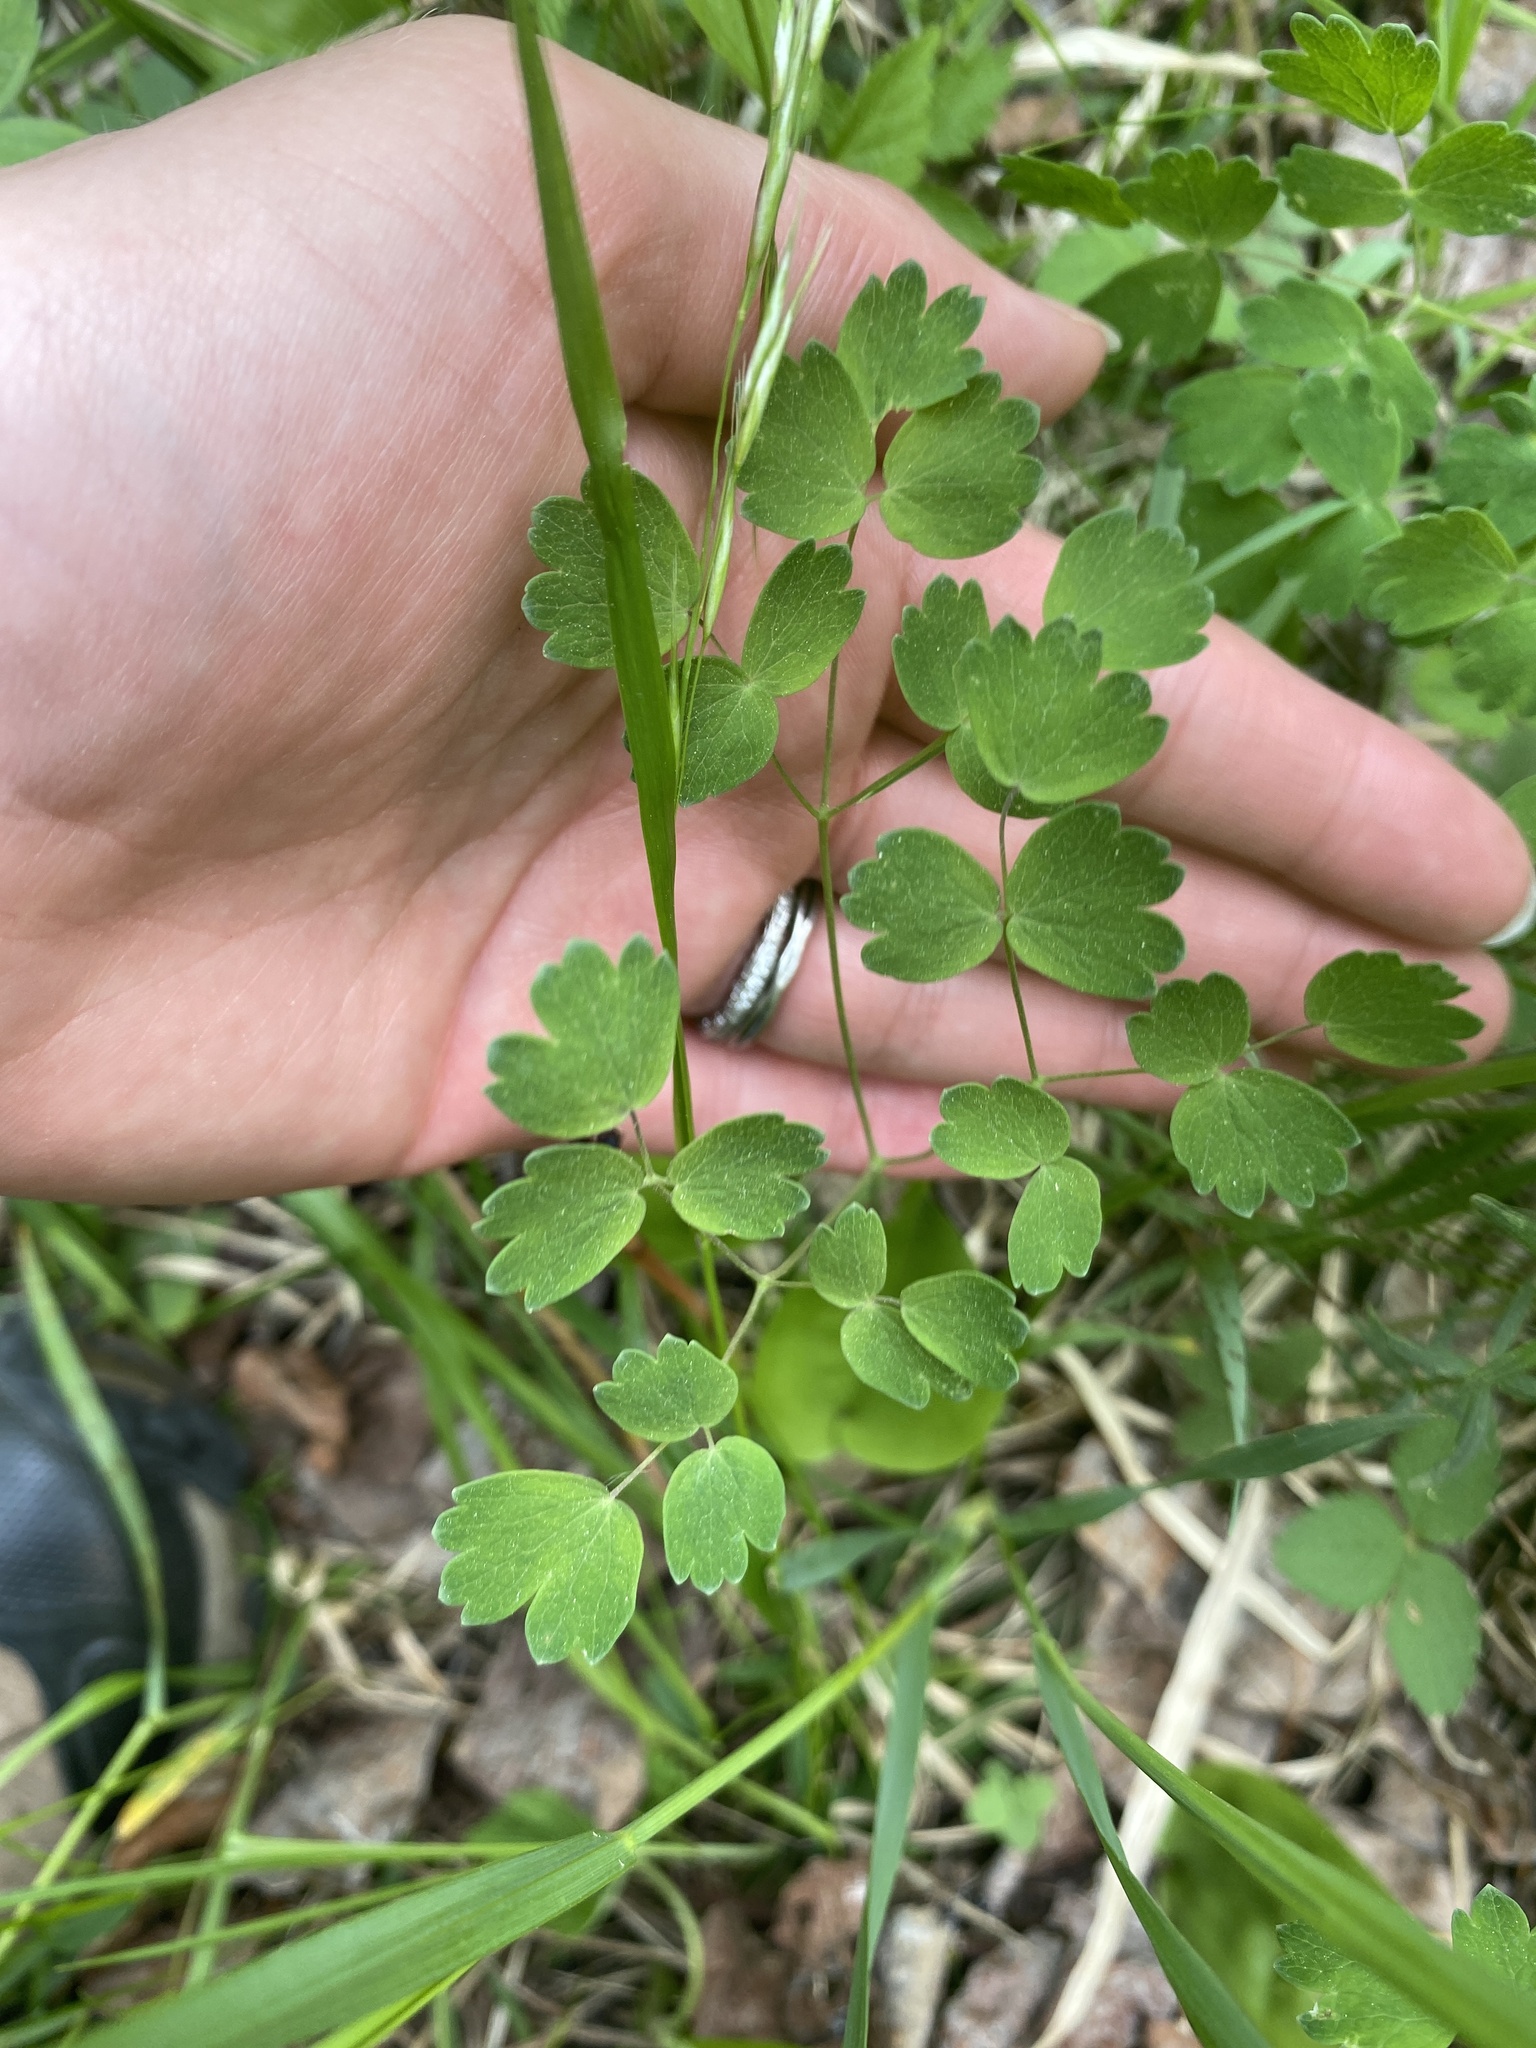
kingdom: Plantae
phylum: Tracheophyta
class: Magnoliopsida
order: Ranunculales
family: Ranunculaceae
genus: Thalictrum
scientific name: Thalictrum venulosum
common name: Early meadow-rue
